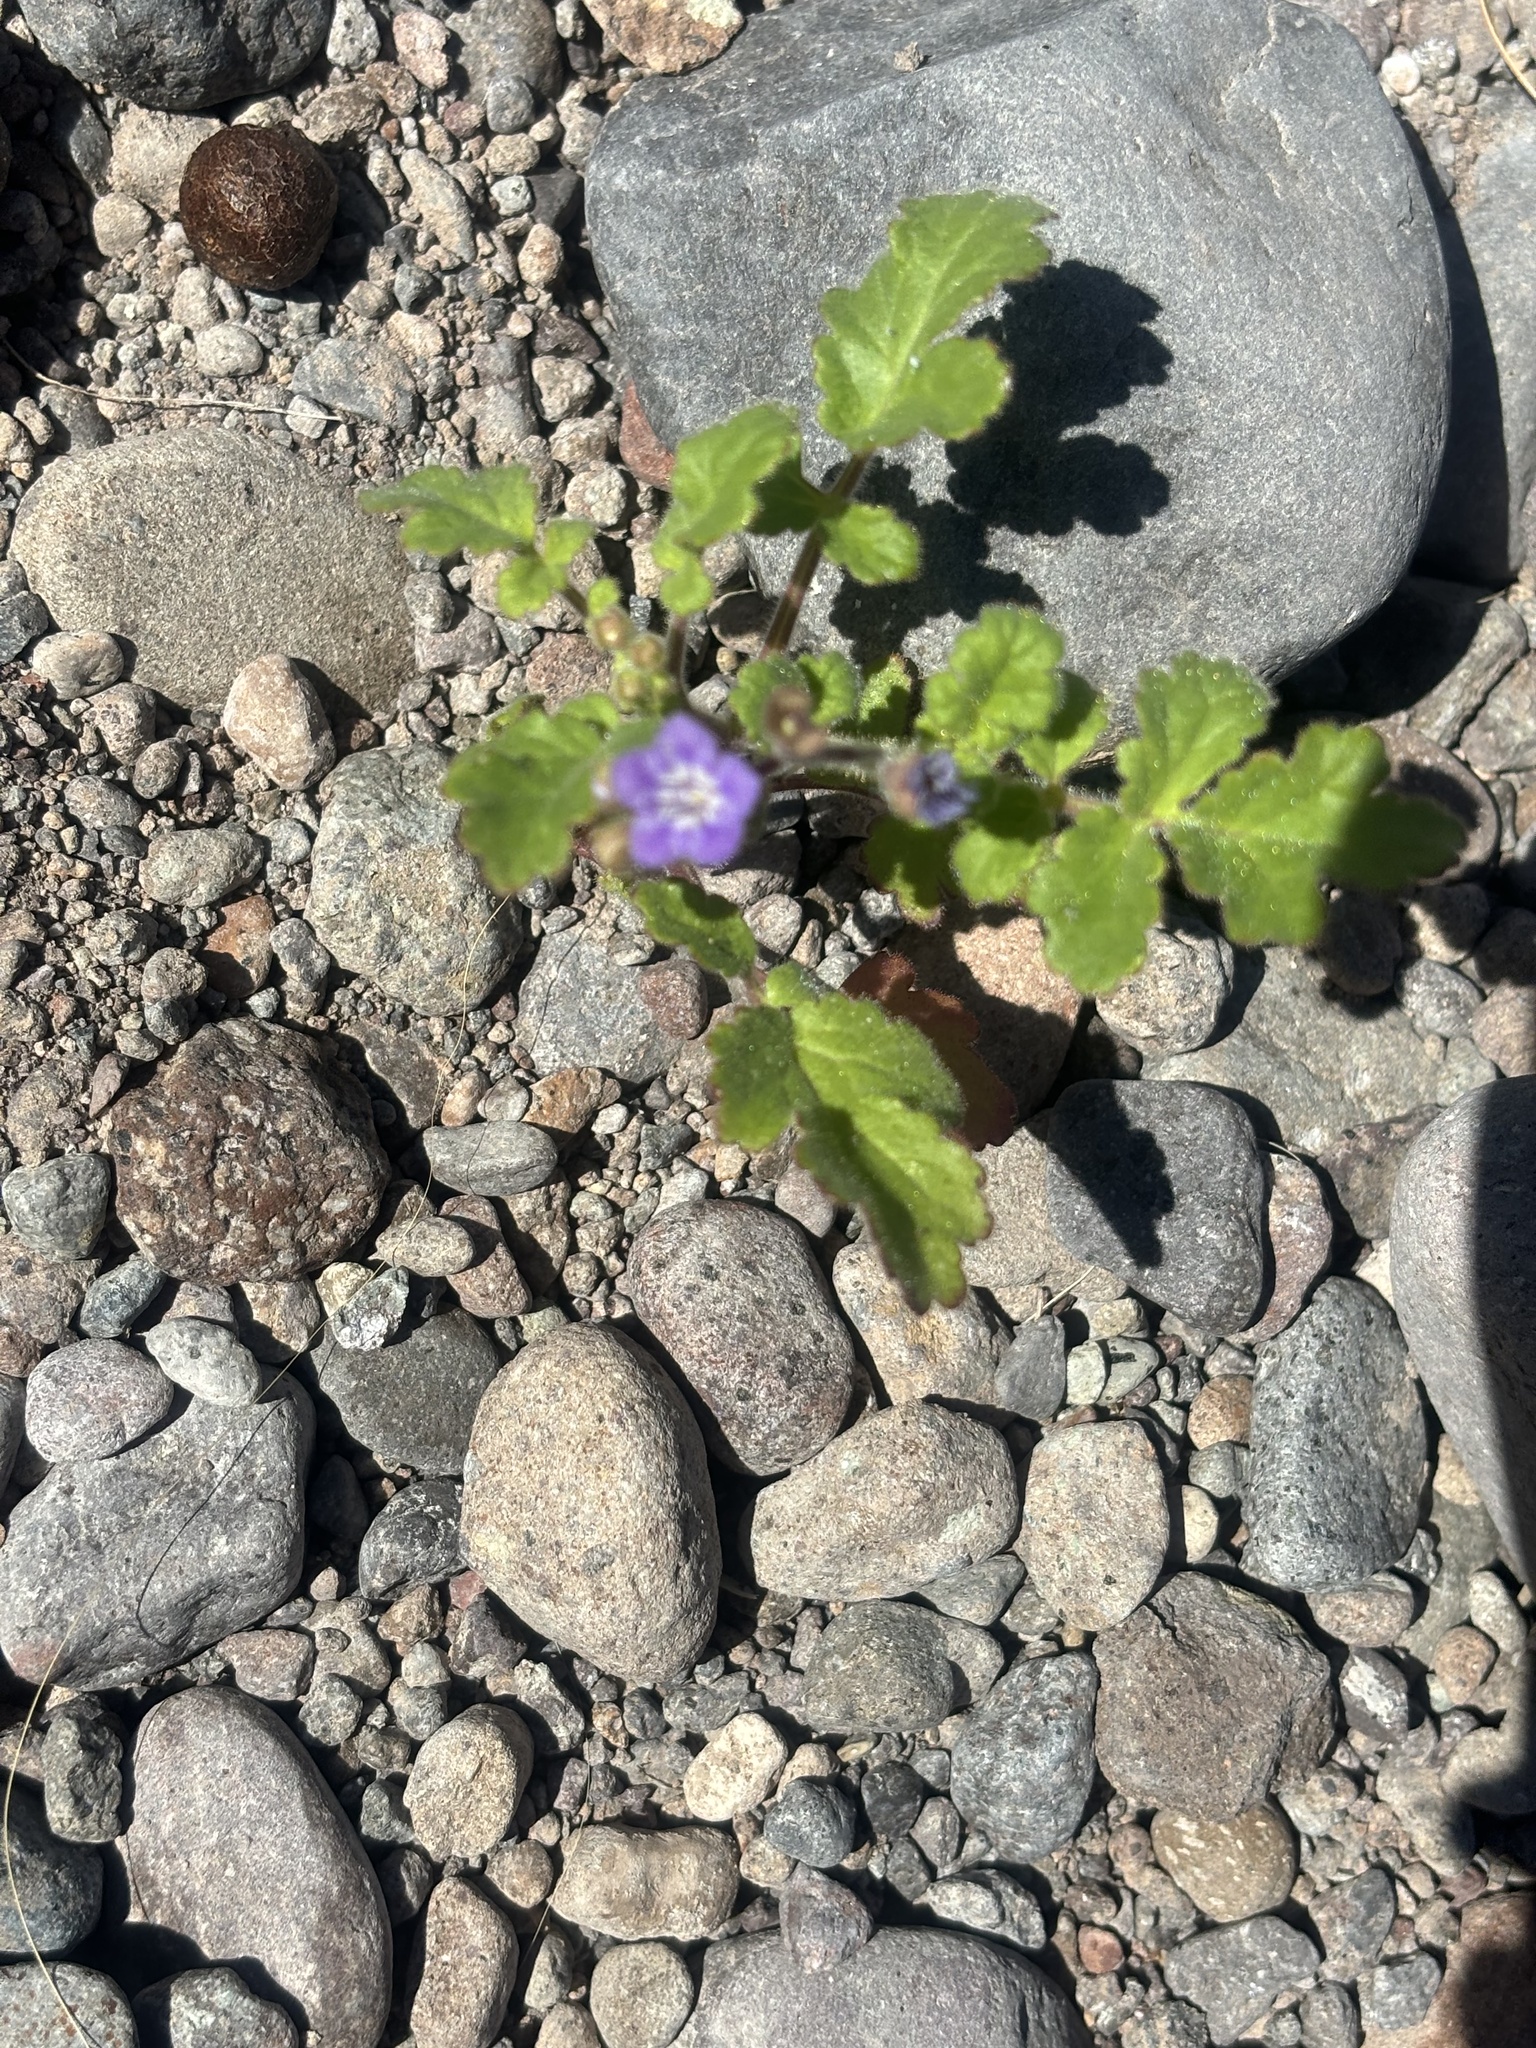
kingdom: Plantae
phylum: Tracheophyta
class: Magnoliopsida
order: Boraginales
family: Hydrophyllaceae
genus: Phacelia
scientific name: Phacelia scariosa
